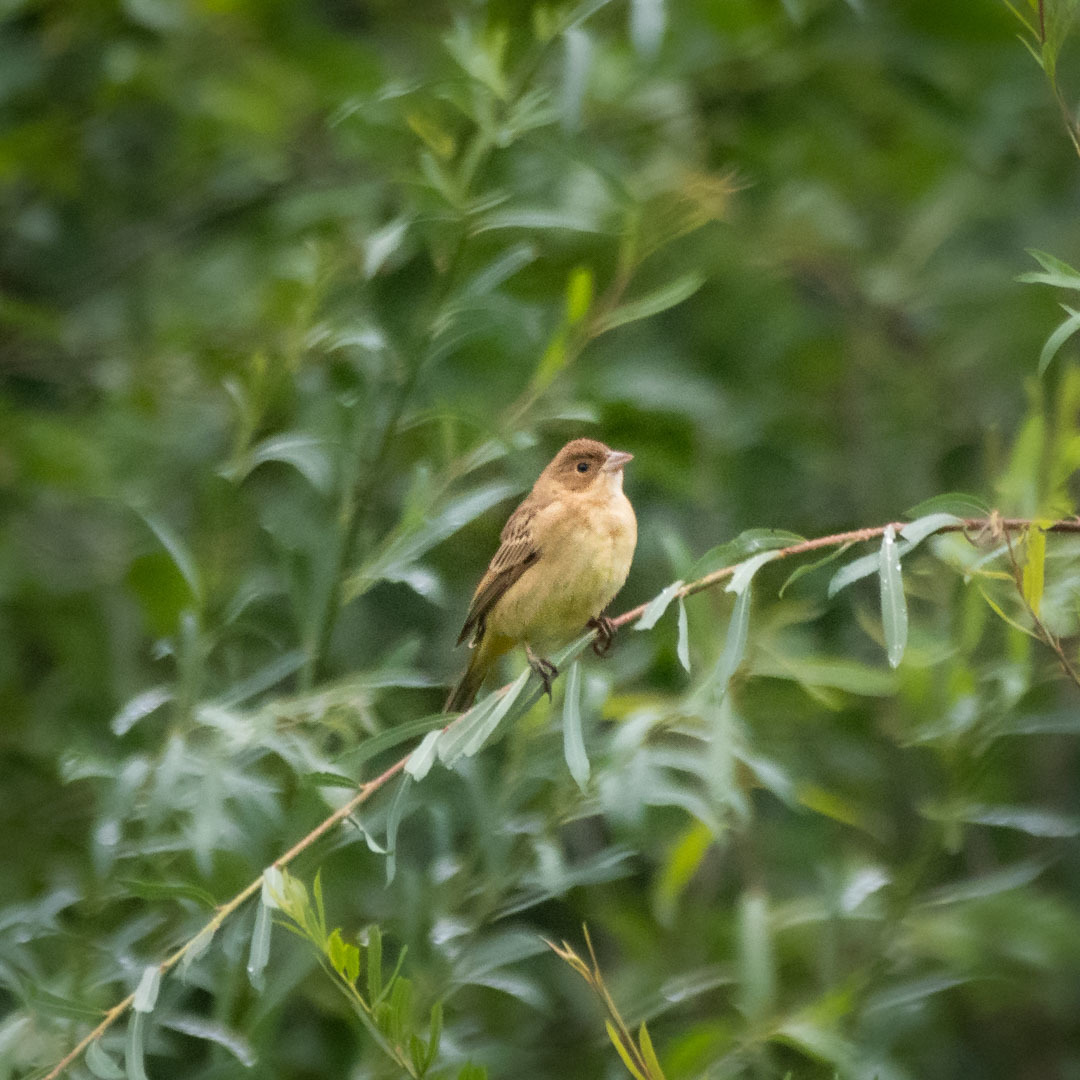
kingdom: Animalia
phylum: Chordata
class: Aves
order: Passeriformes
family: Emberizidae
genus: Emberiza
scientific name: Emberiza melanocephala
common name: Black-headed bunting
